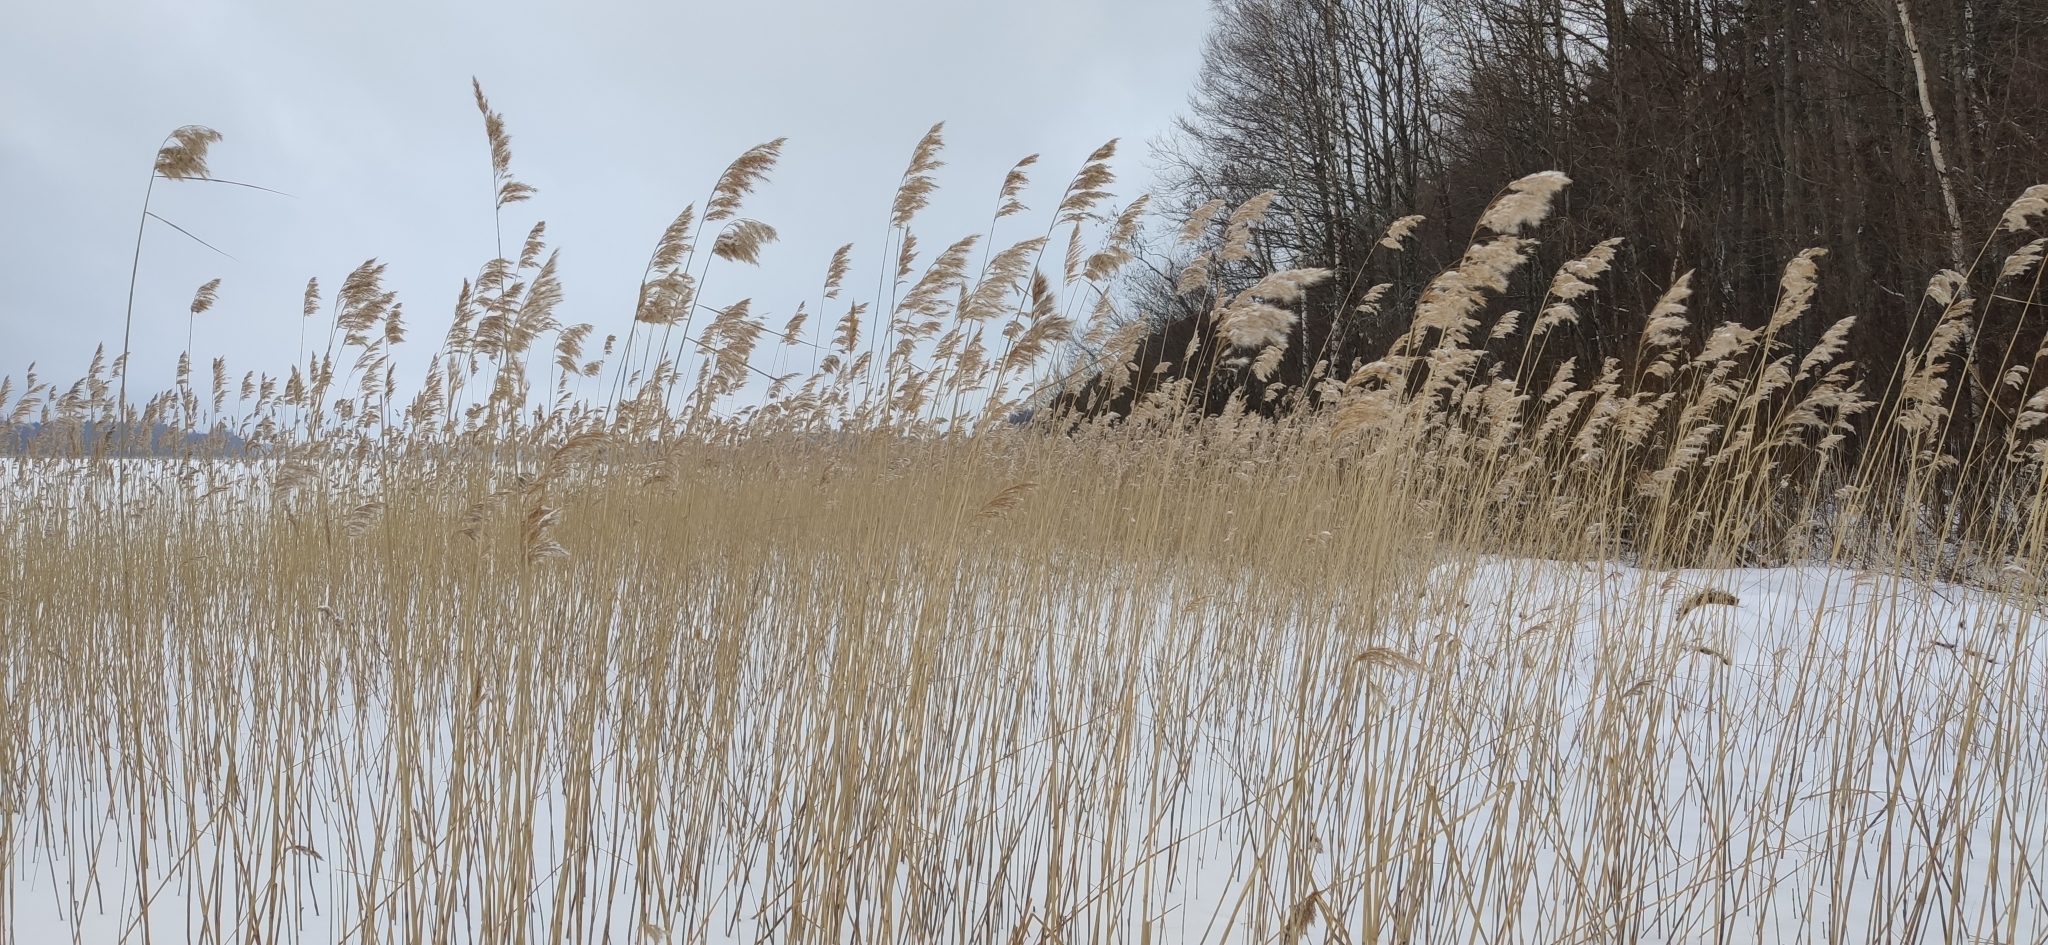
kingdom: Plantae
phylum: Tracheophyta
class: Liliopsida
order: Poales
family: Poaceae
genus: Phragmites
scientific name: Phragmites australis
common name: Common reed
